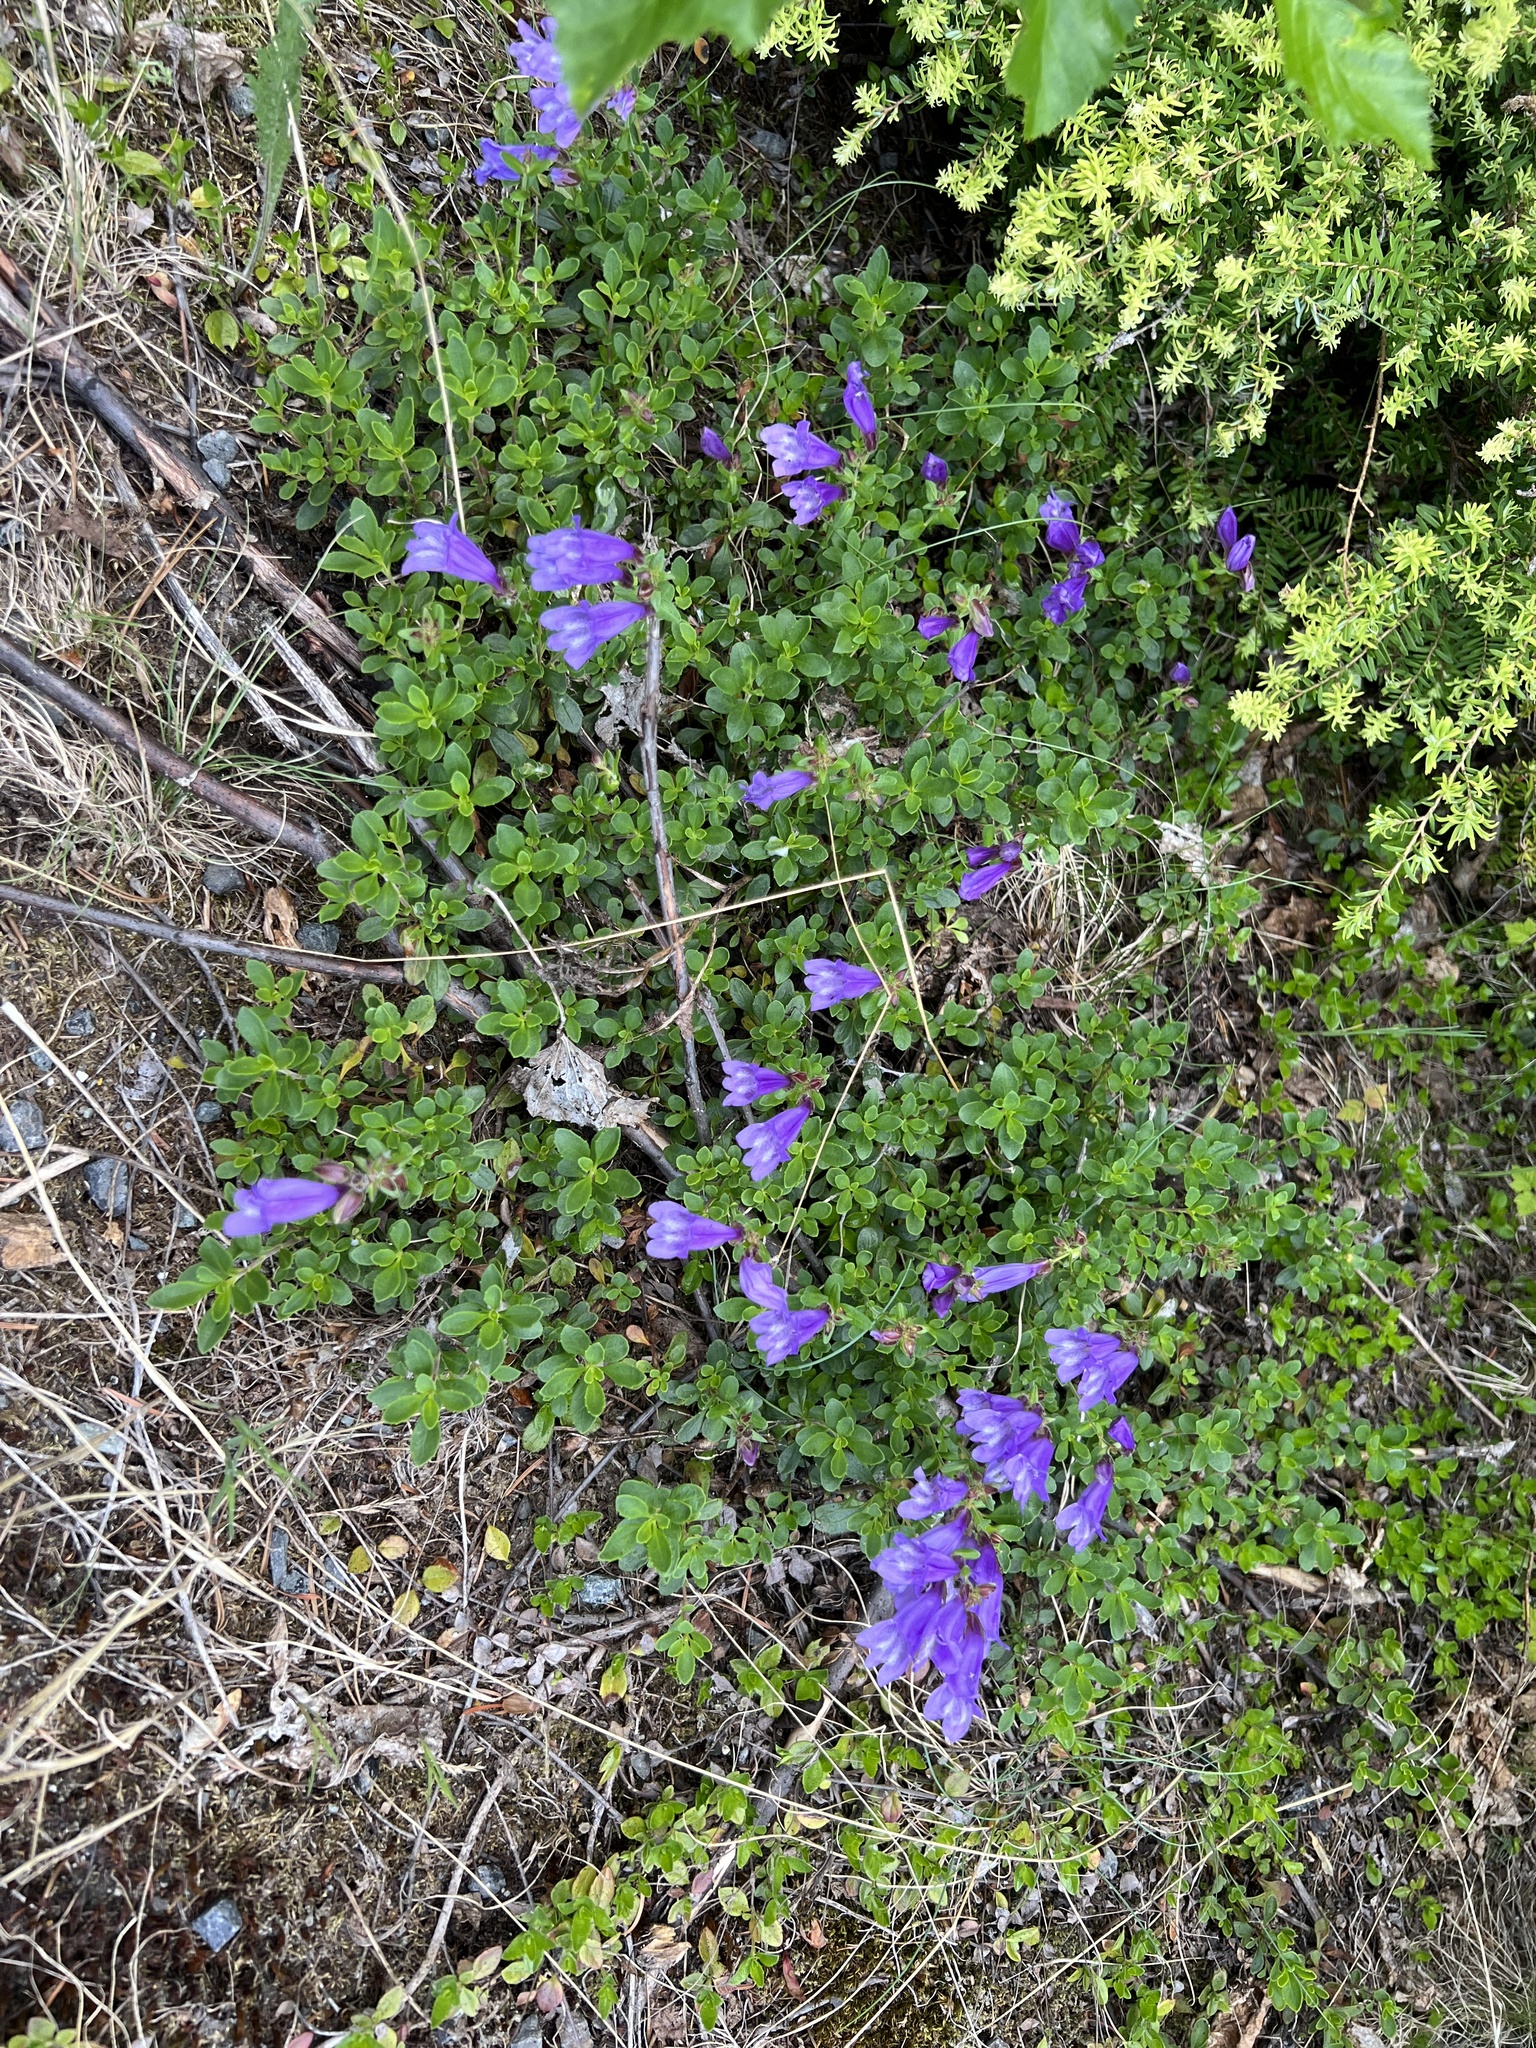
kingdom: Plantae
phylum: Tracheophyta
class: Magnoliopsida
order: Lamiales
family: Plantaginaceae
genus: Penstemon
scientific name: Penstemon davidsonii
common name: Davidson's penstemon
